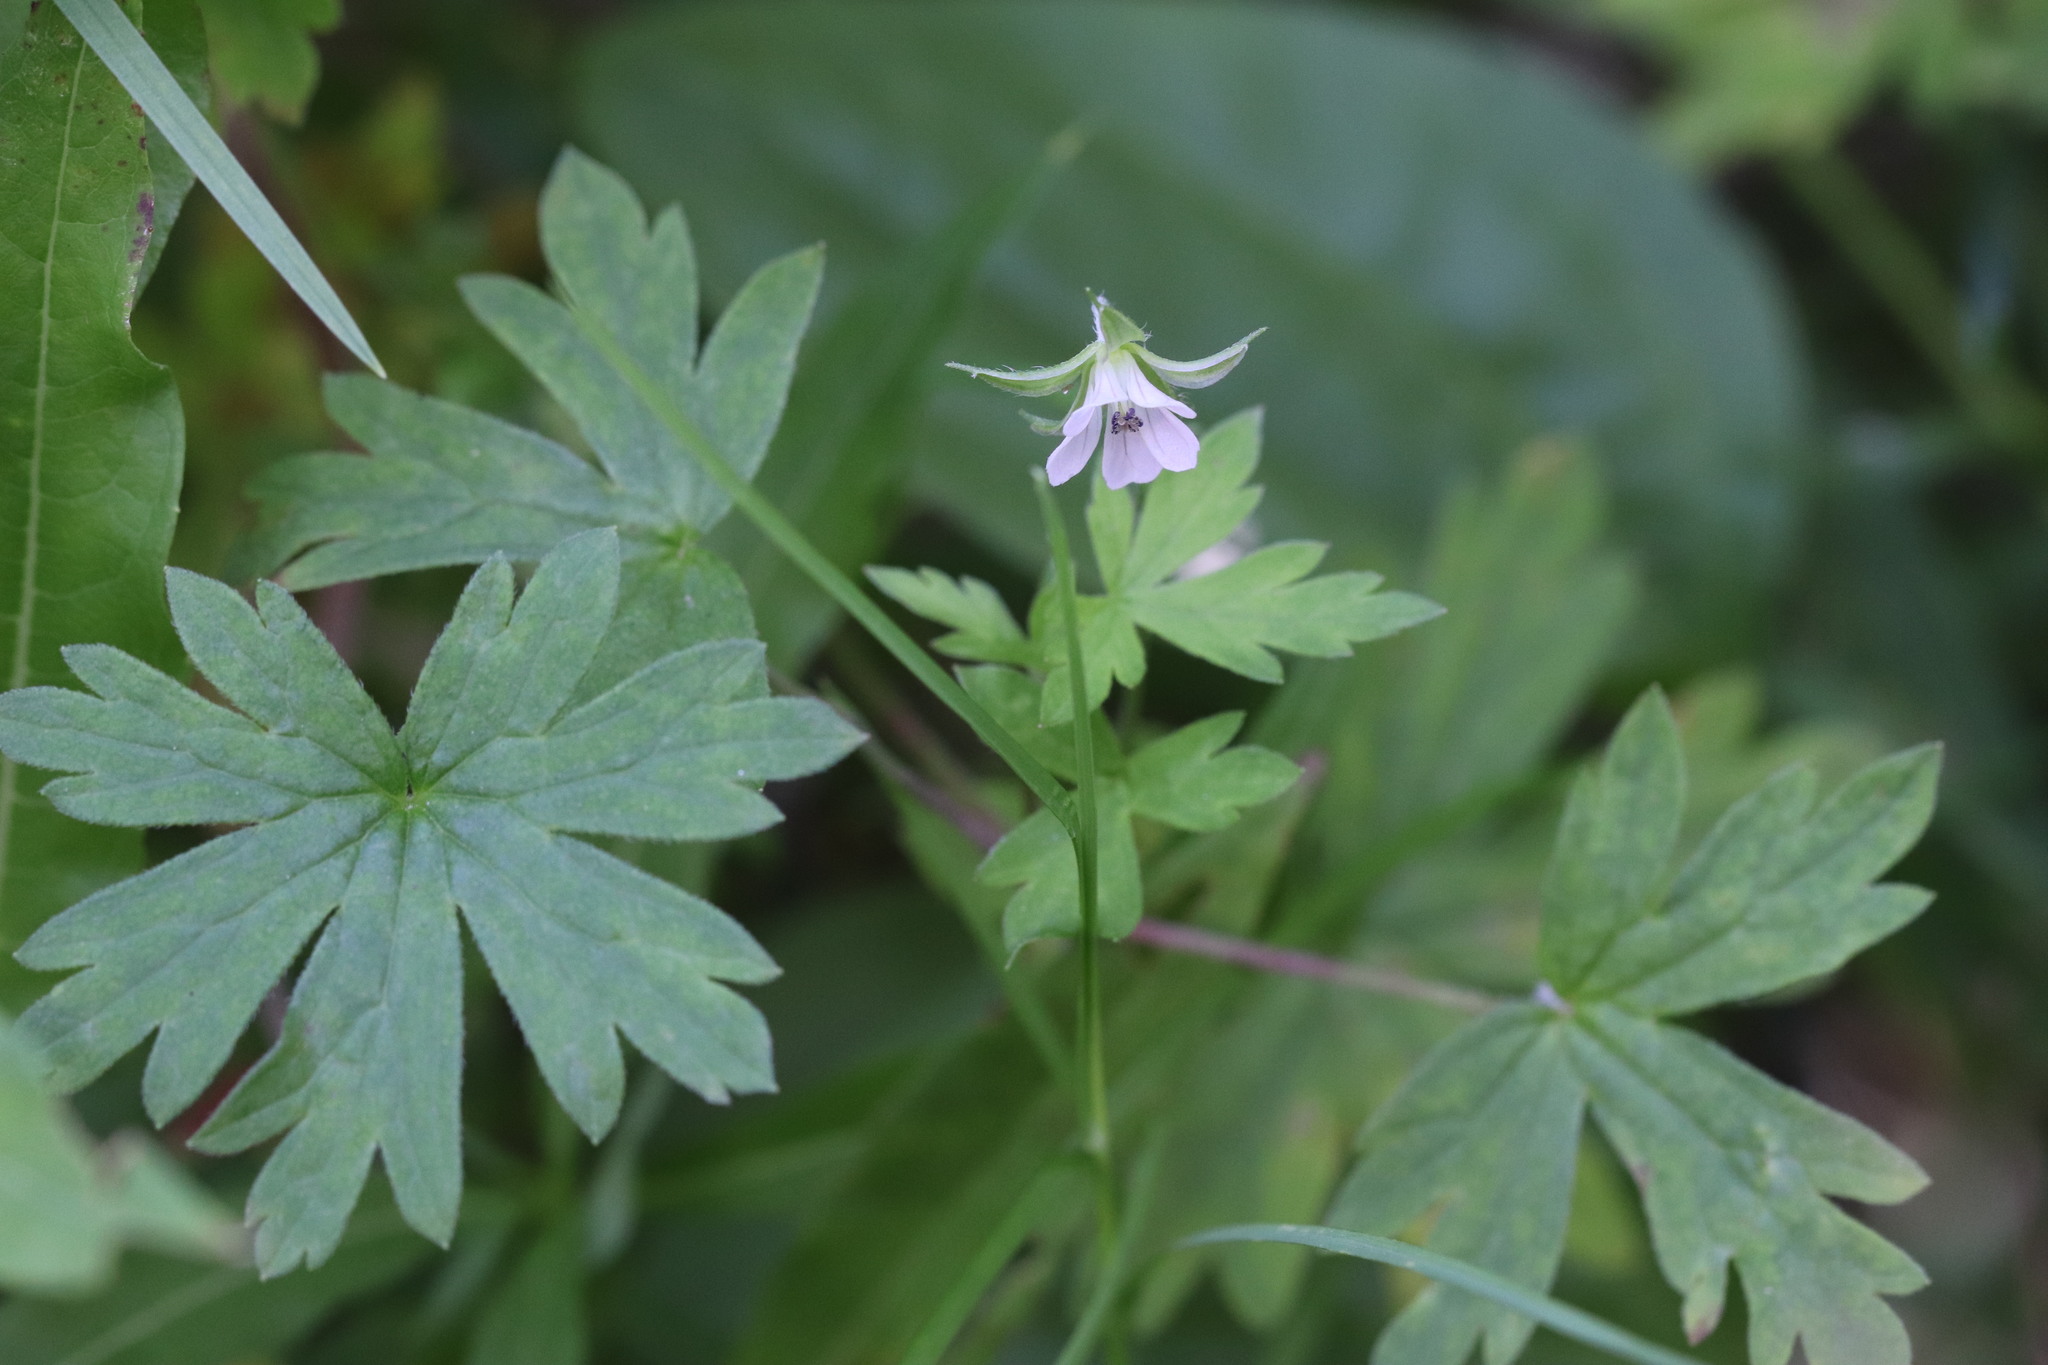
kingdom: Plantae
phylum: Tracheophyta
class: Magnoliopsida
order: Geraniales
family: Geraniaceae
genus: Geranium
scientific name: Geranium sibiricum
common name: Siberian crane's-bill
